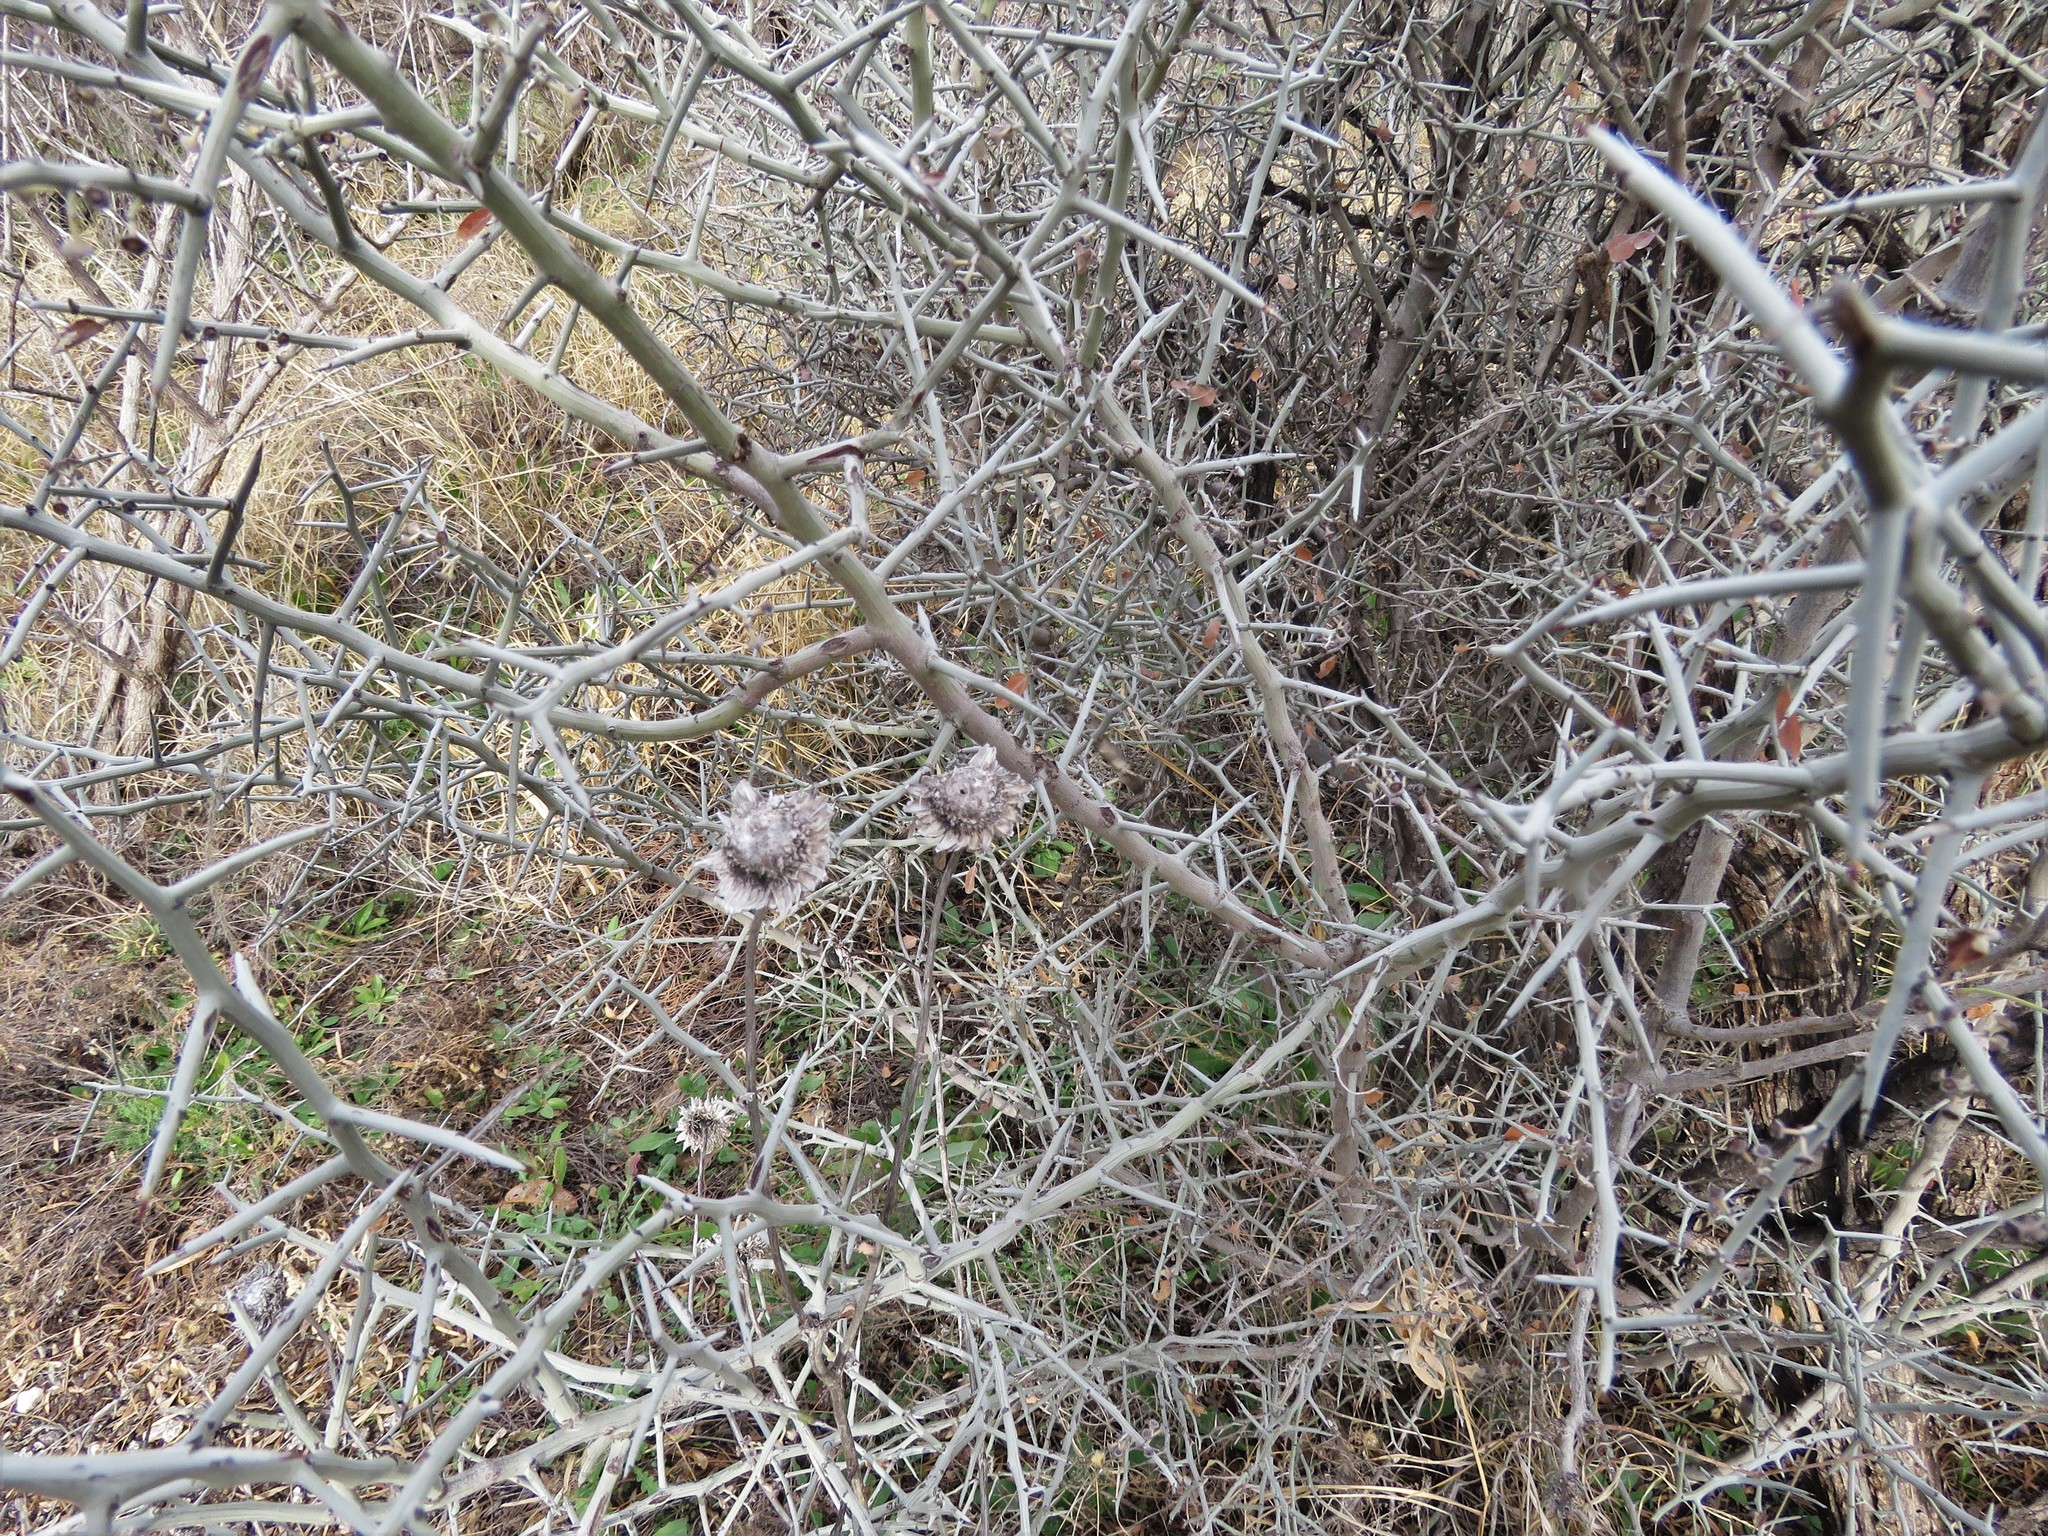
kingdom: Plantae
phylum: Tracheophyta
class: Magnoliopsida
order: Rosales
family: Rhamnaceae
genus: Sarcomphalus
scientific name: Sarcomphalus obtusifolius
